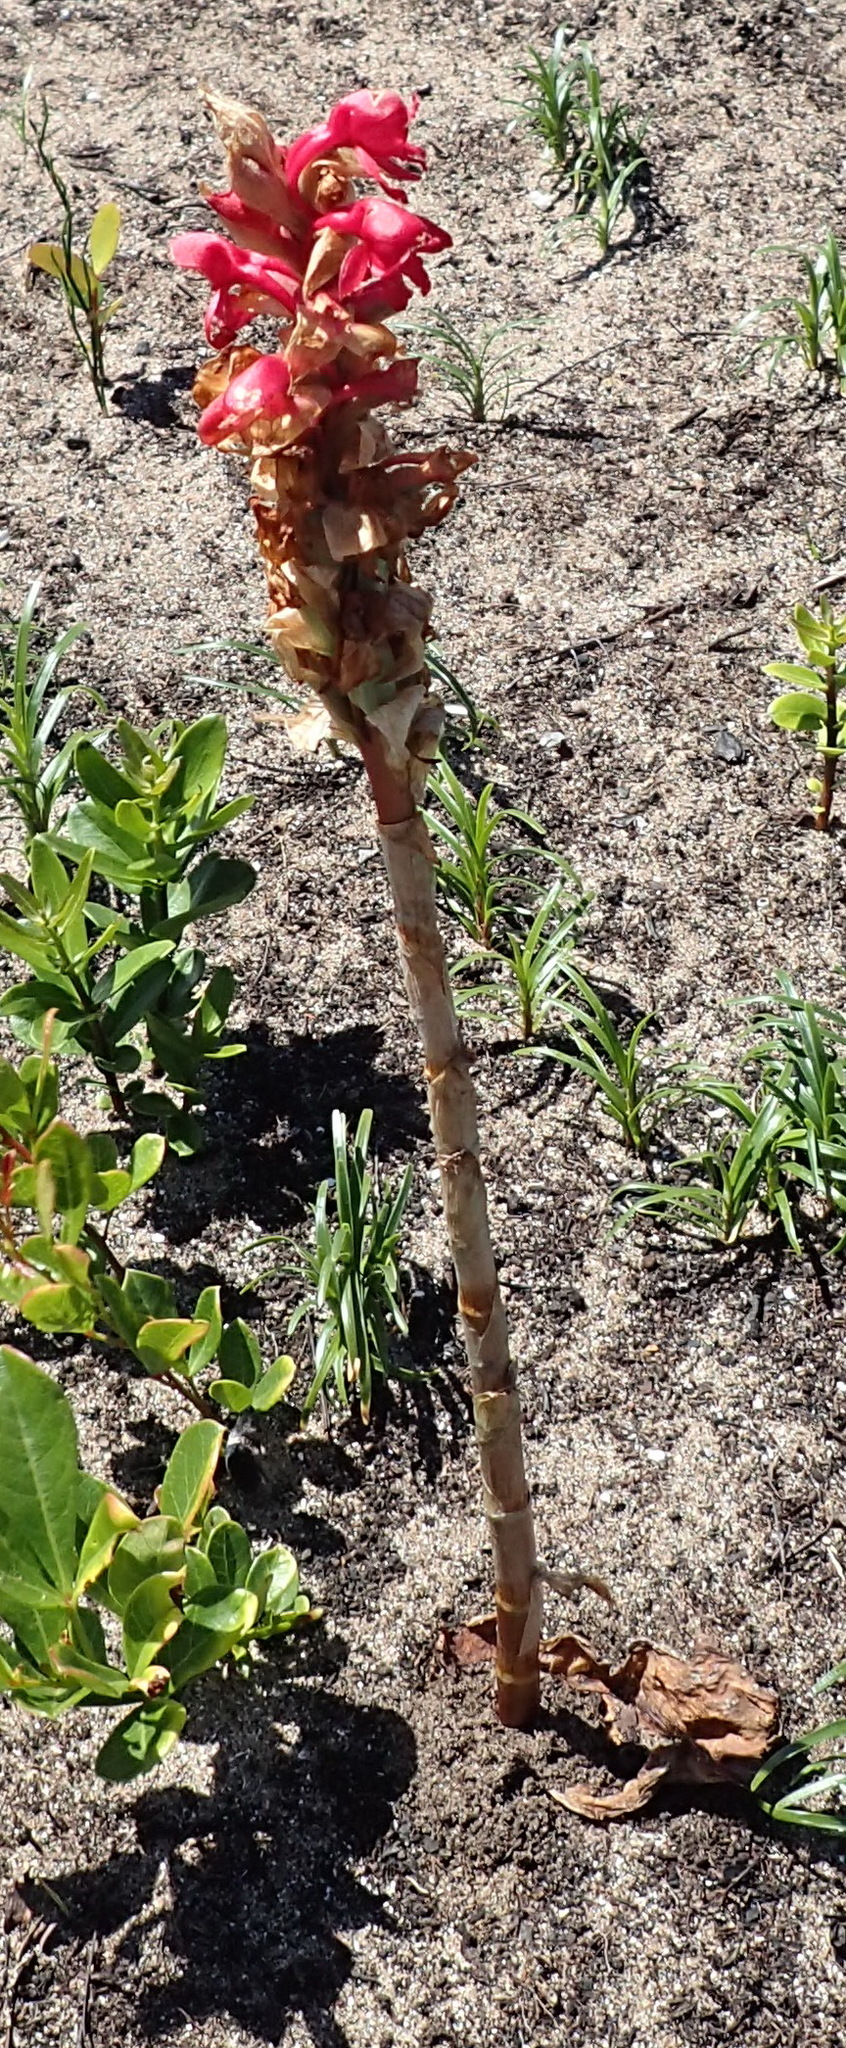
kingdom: Plantae
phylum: Tracheophyta
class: Liliopsida
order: Asparagales
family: Orchidaceae
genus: Satyrium
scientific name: Satyrium princeps
